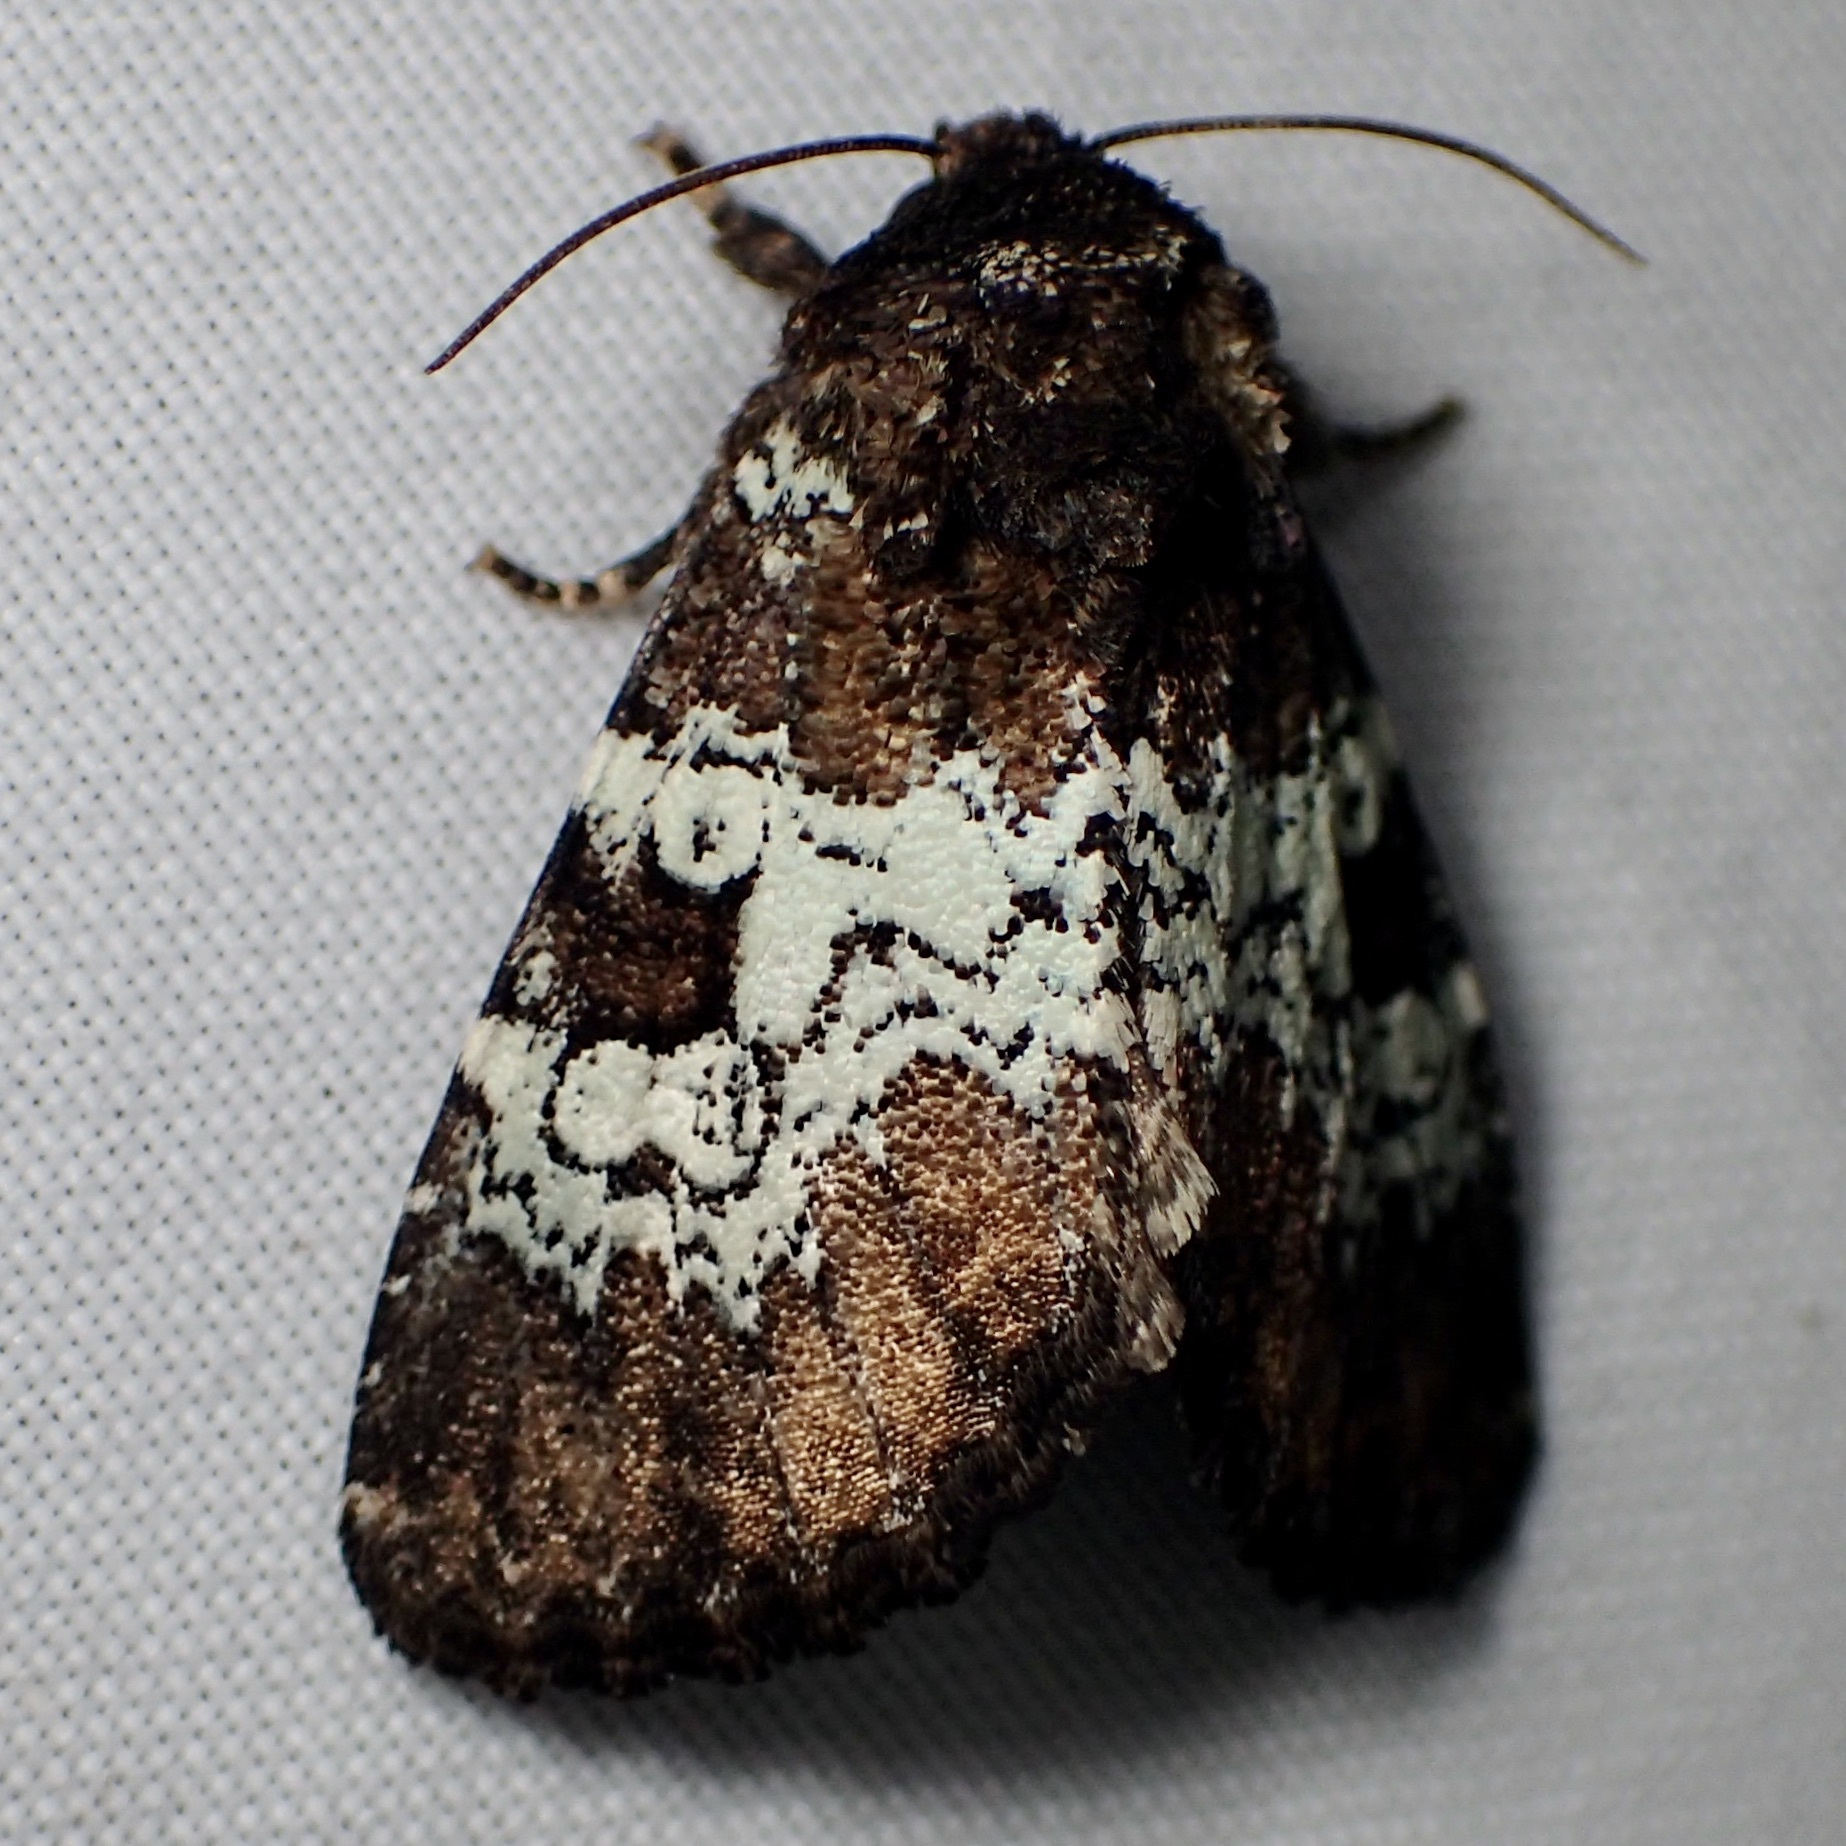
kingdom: Animalia
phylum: Arthropoda
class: Insecta
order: Lepidoptera
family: Noctuidae
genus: Euamiana
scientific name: Euamiana contrasta
